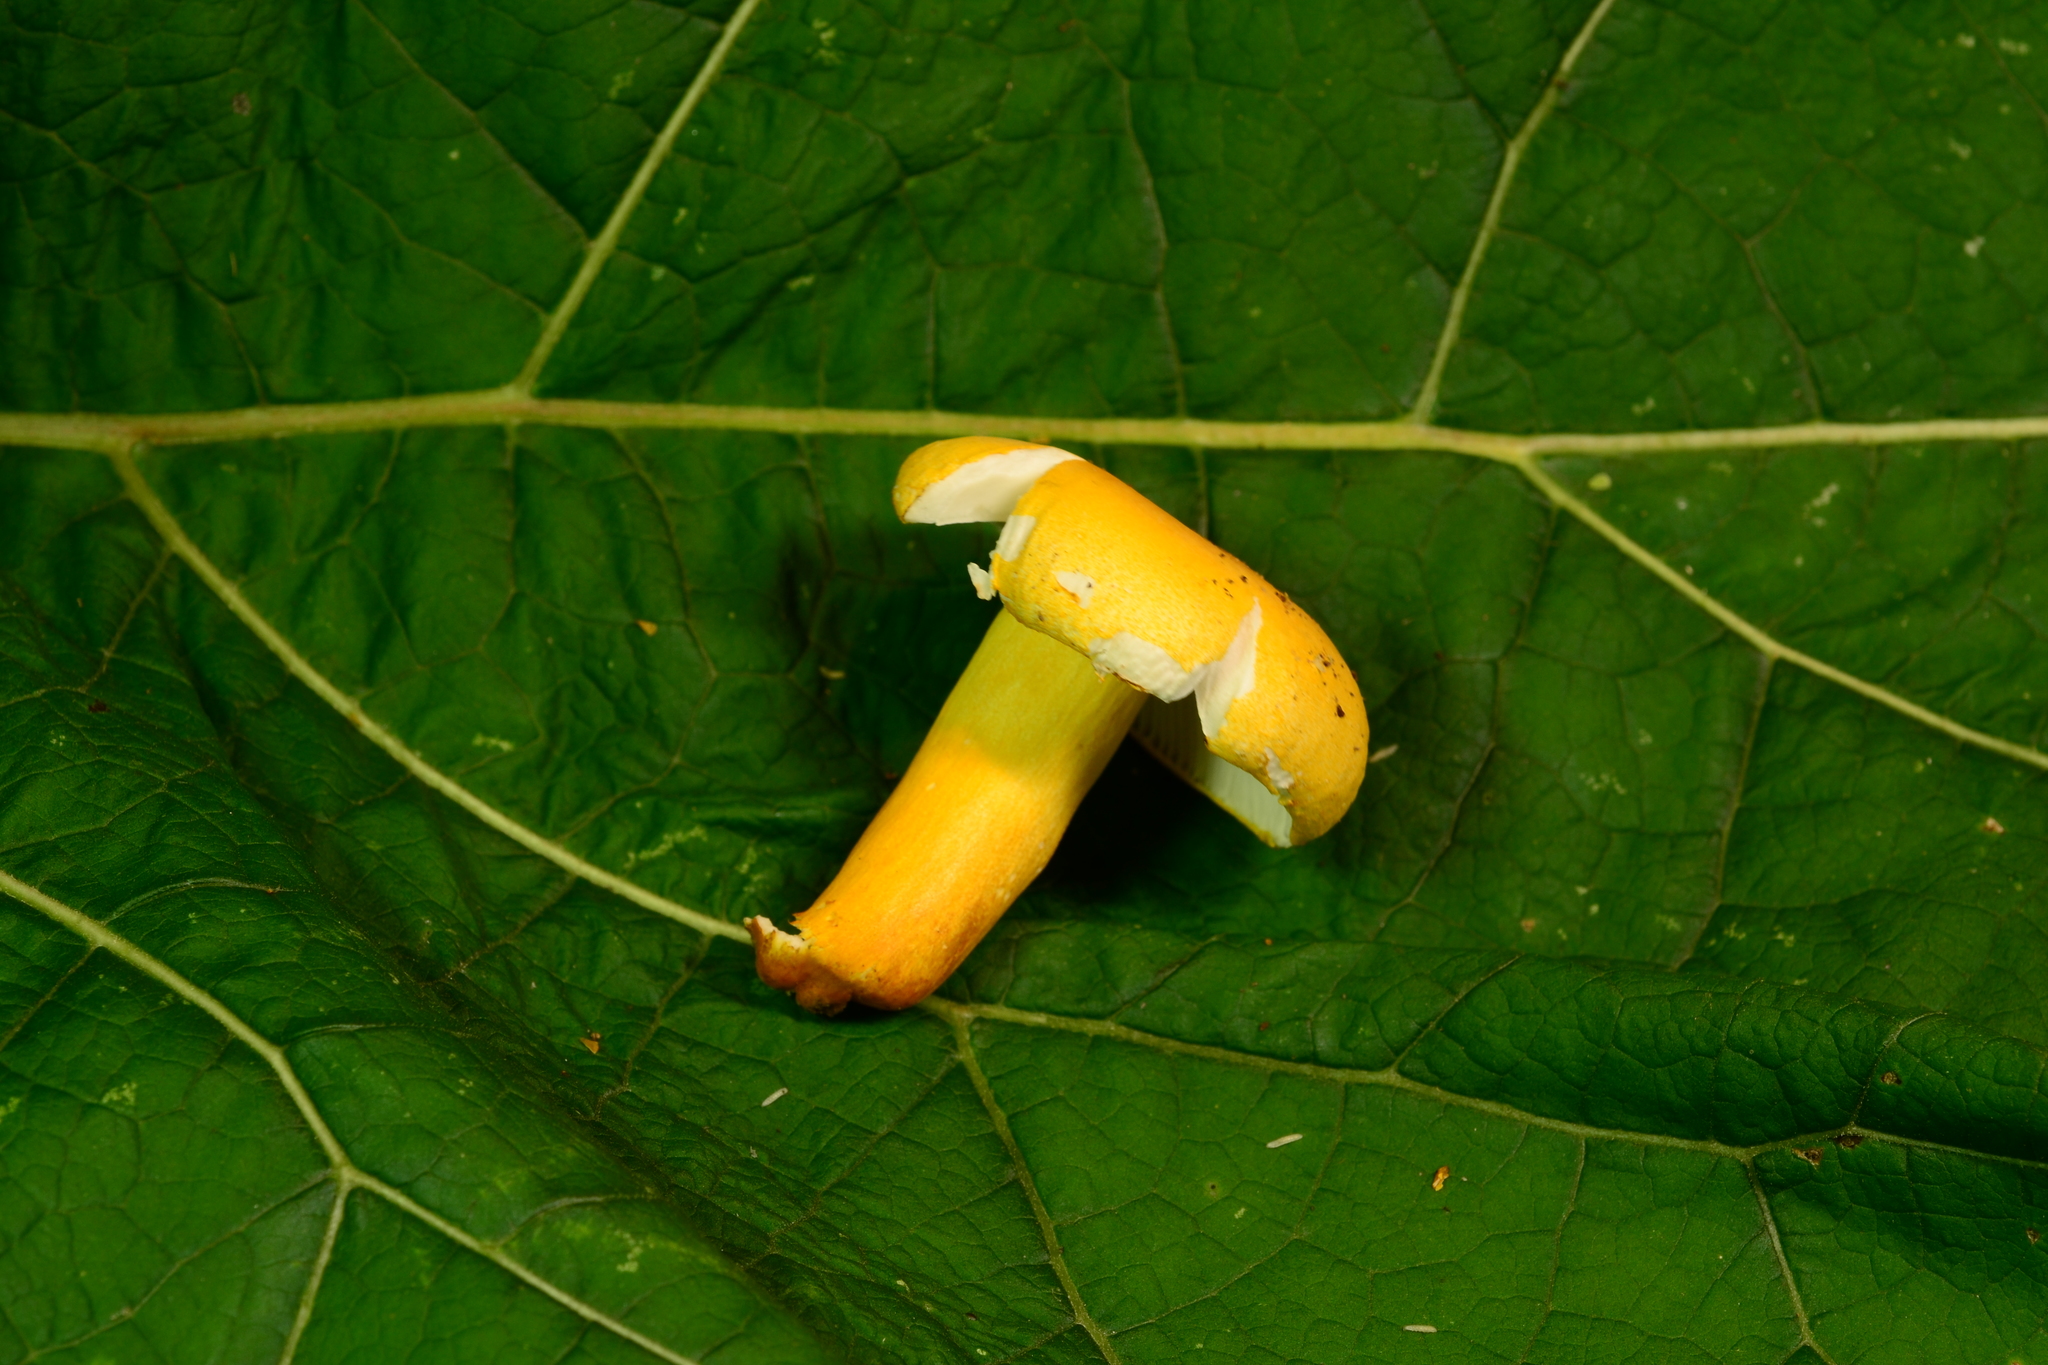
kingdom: Fungi
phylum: Basidiomycota
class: Agaricomycetes
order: Russulales
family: Russulaceae
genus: Russula
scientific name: Russula flavida
